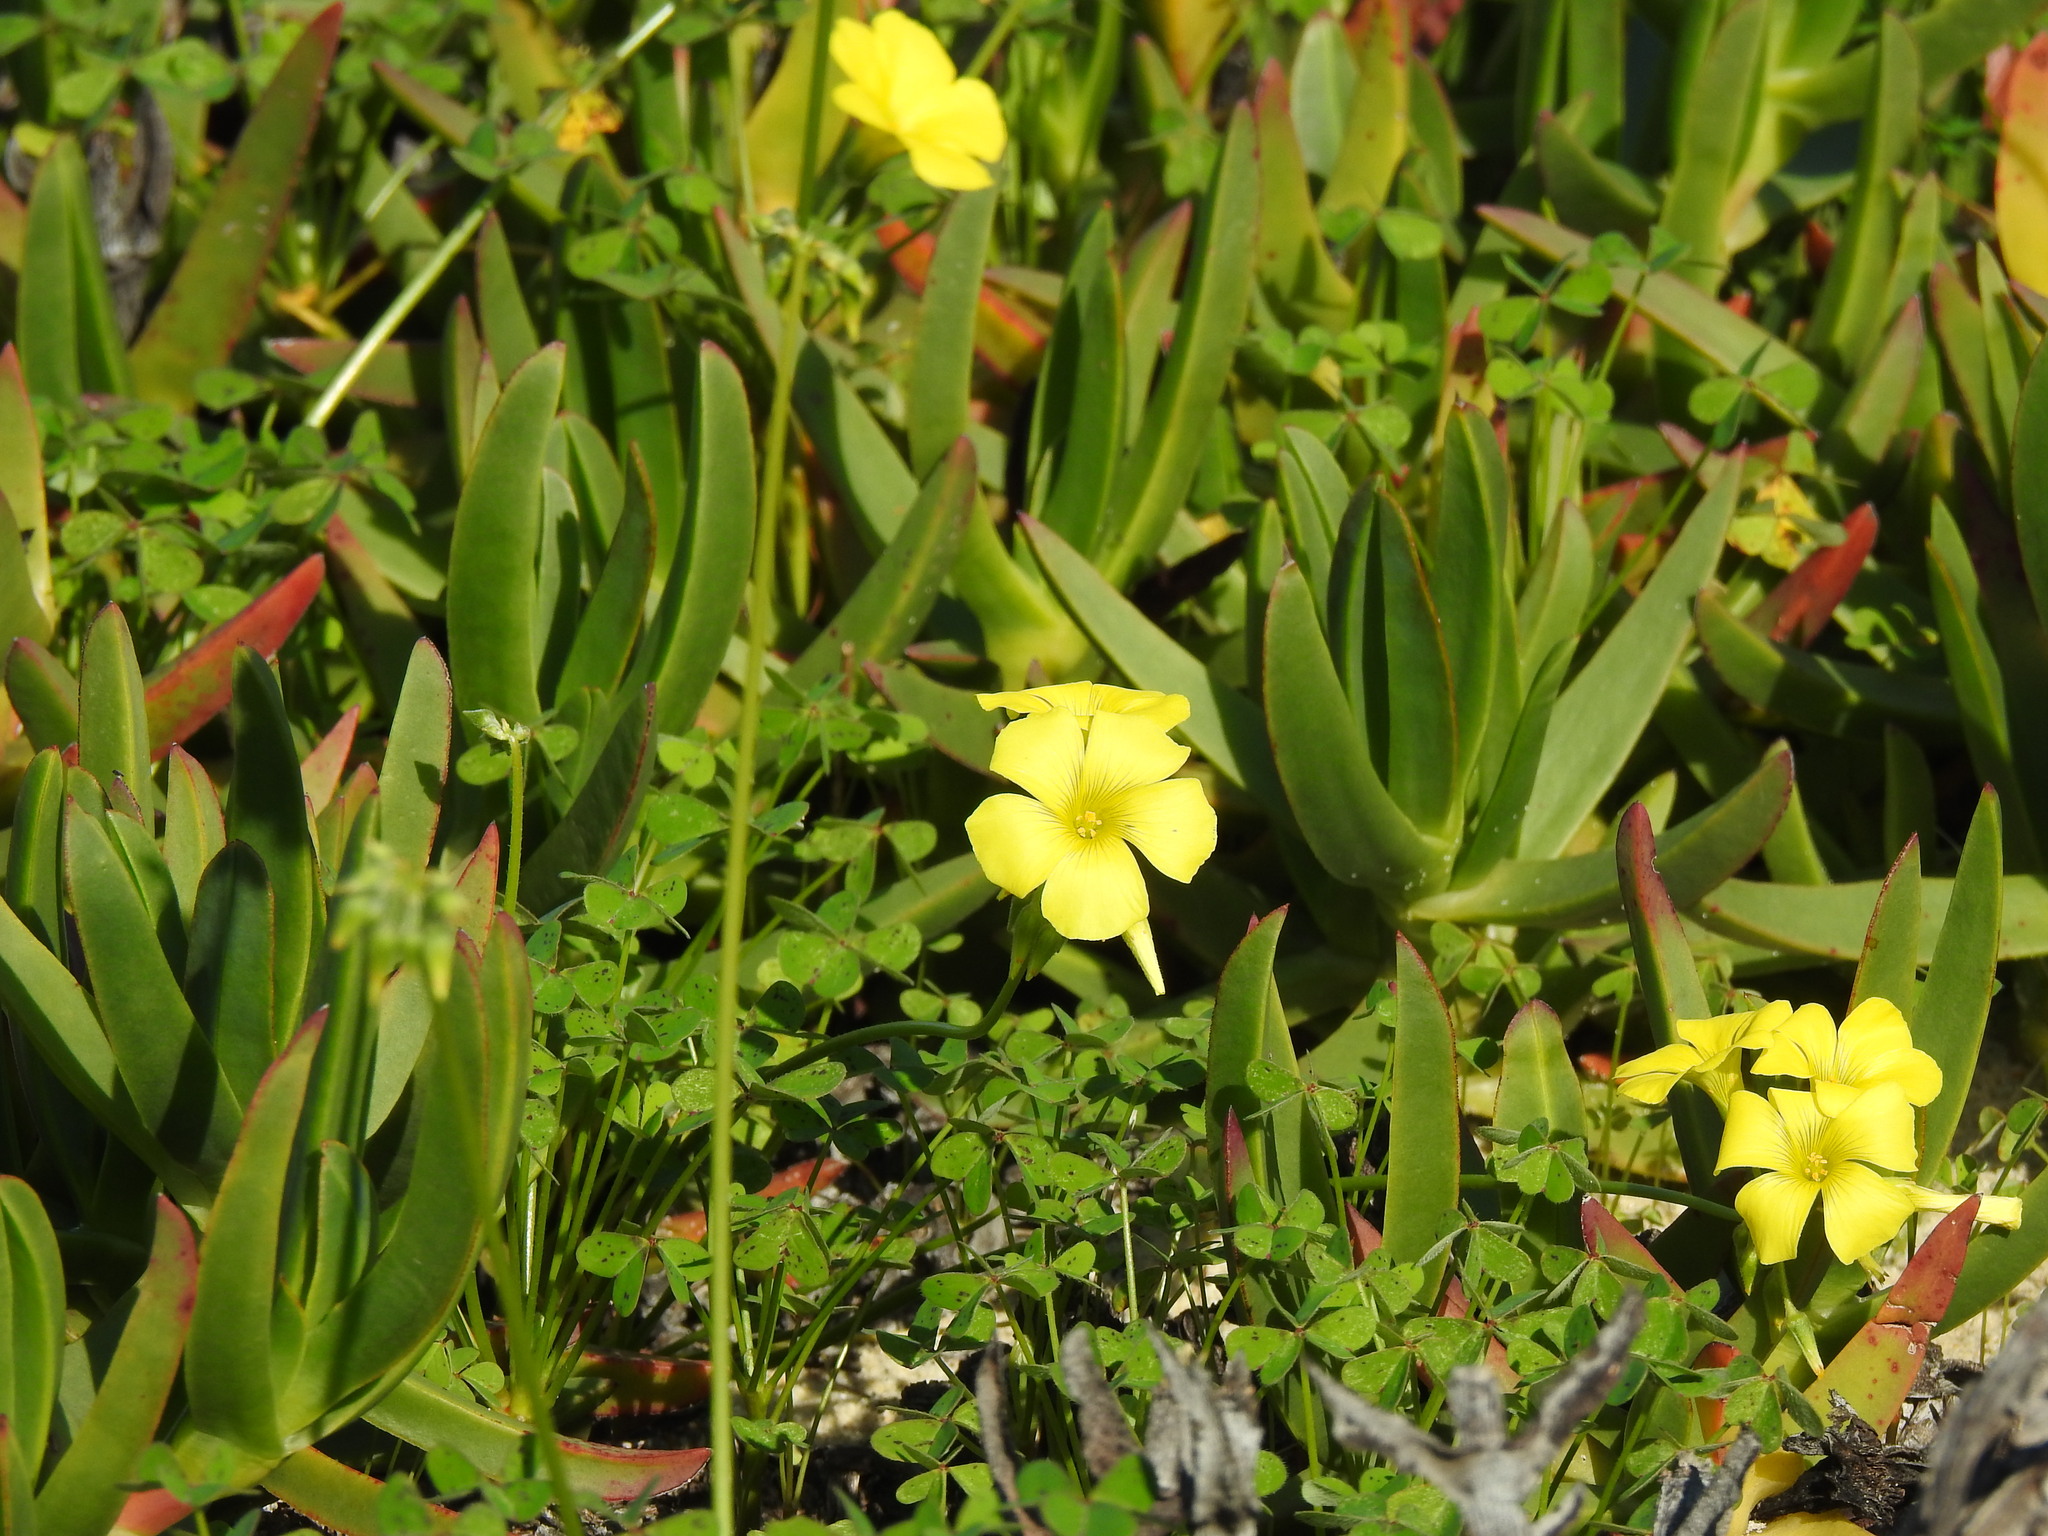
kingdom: Plantae
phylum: Tracheophyta
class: Magnoliopsida
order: Oxalidales
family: Oxalidaceae
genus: Oxalis
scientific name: Oxalis pes-caprae
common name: Bermuda-buttercup
